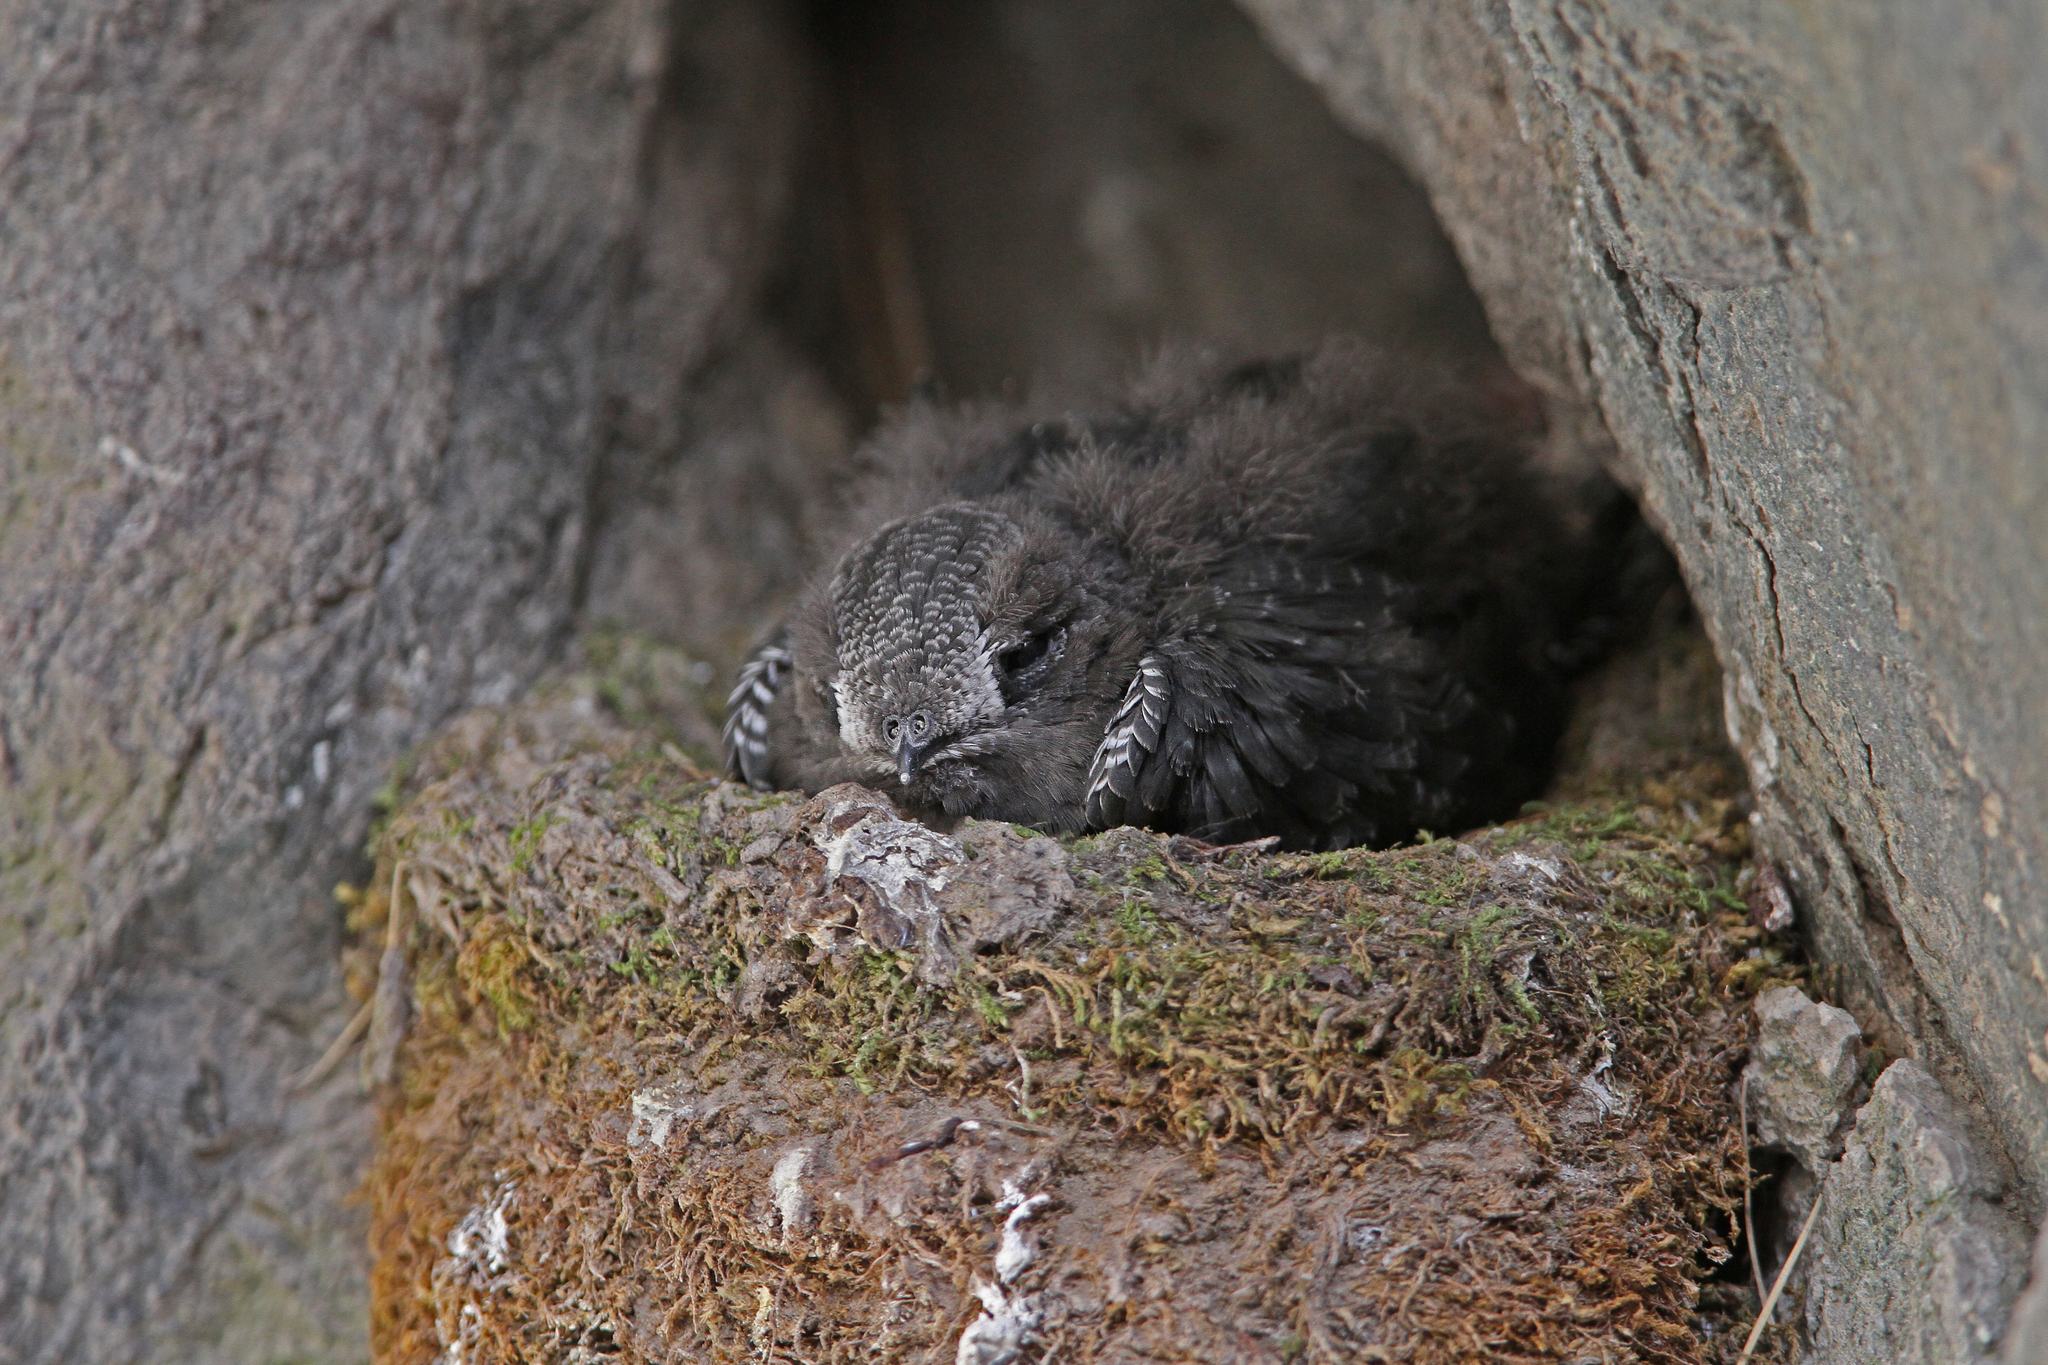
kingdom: Animalia
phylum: Chordata
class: Aves
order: Apodiformes
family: Apodidae
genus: Cypseloides
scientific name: Cypseloides niger
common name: Black swift
